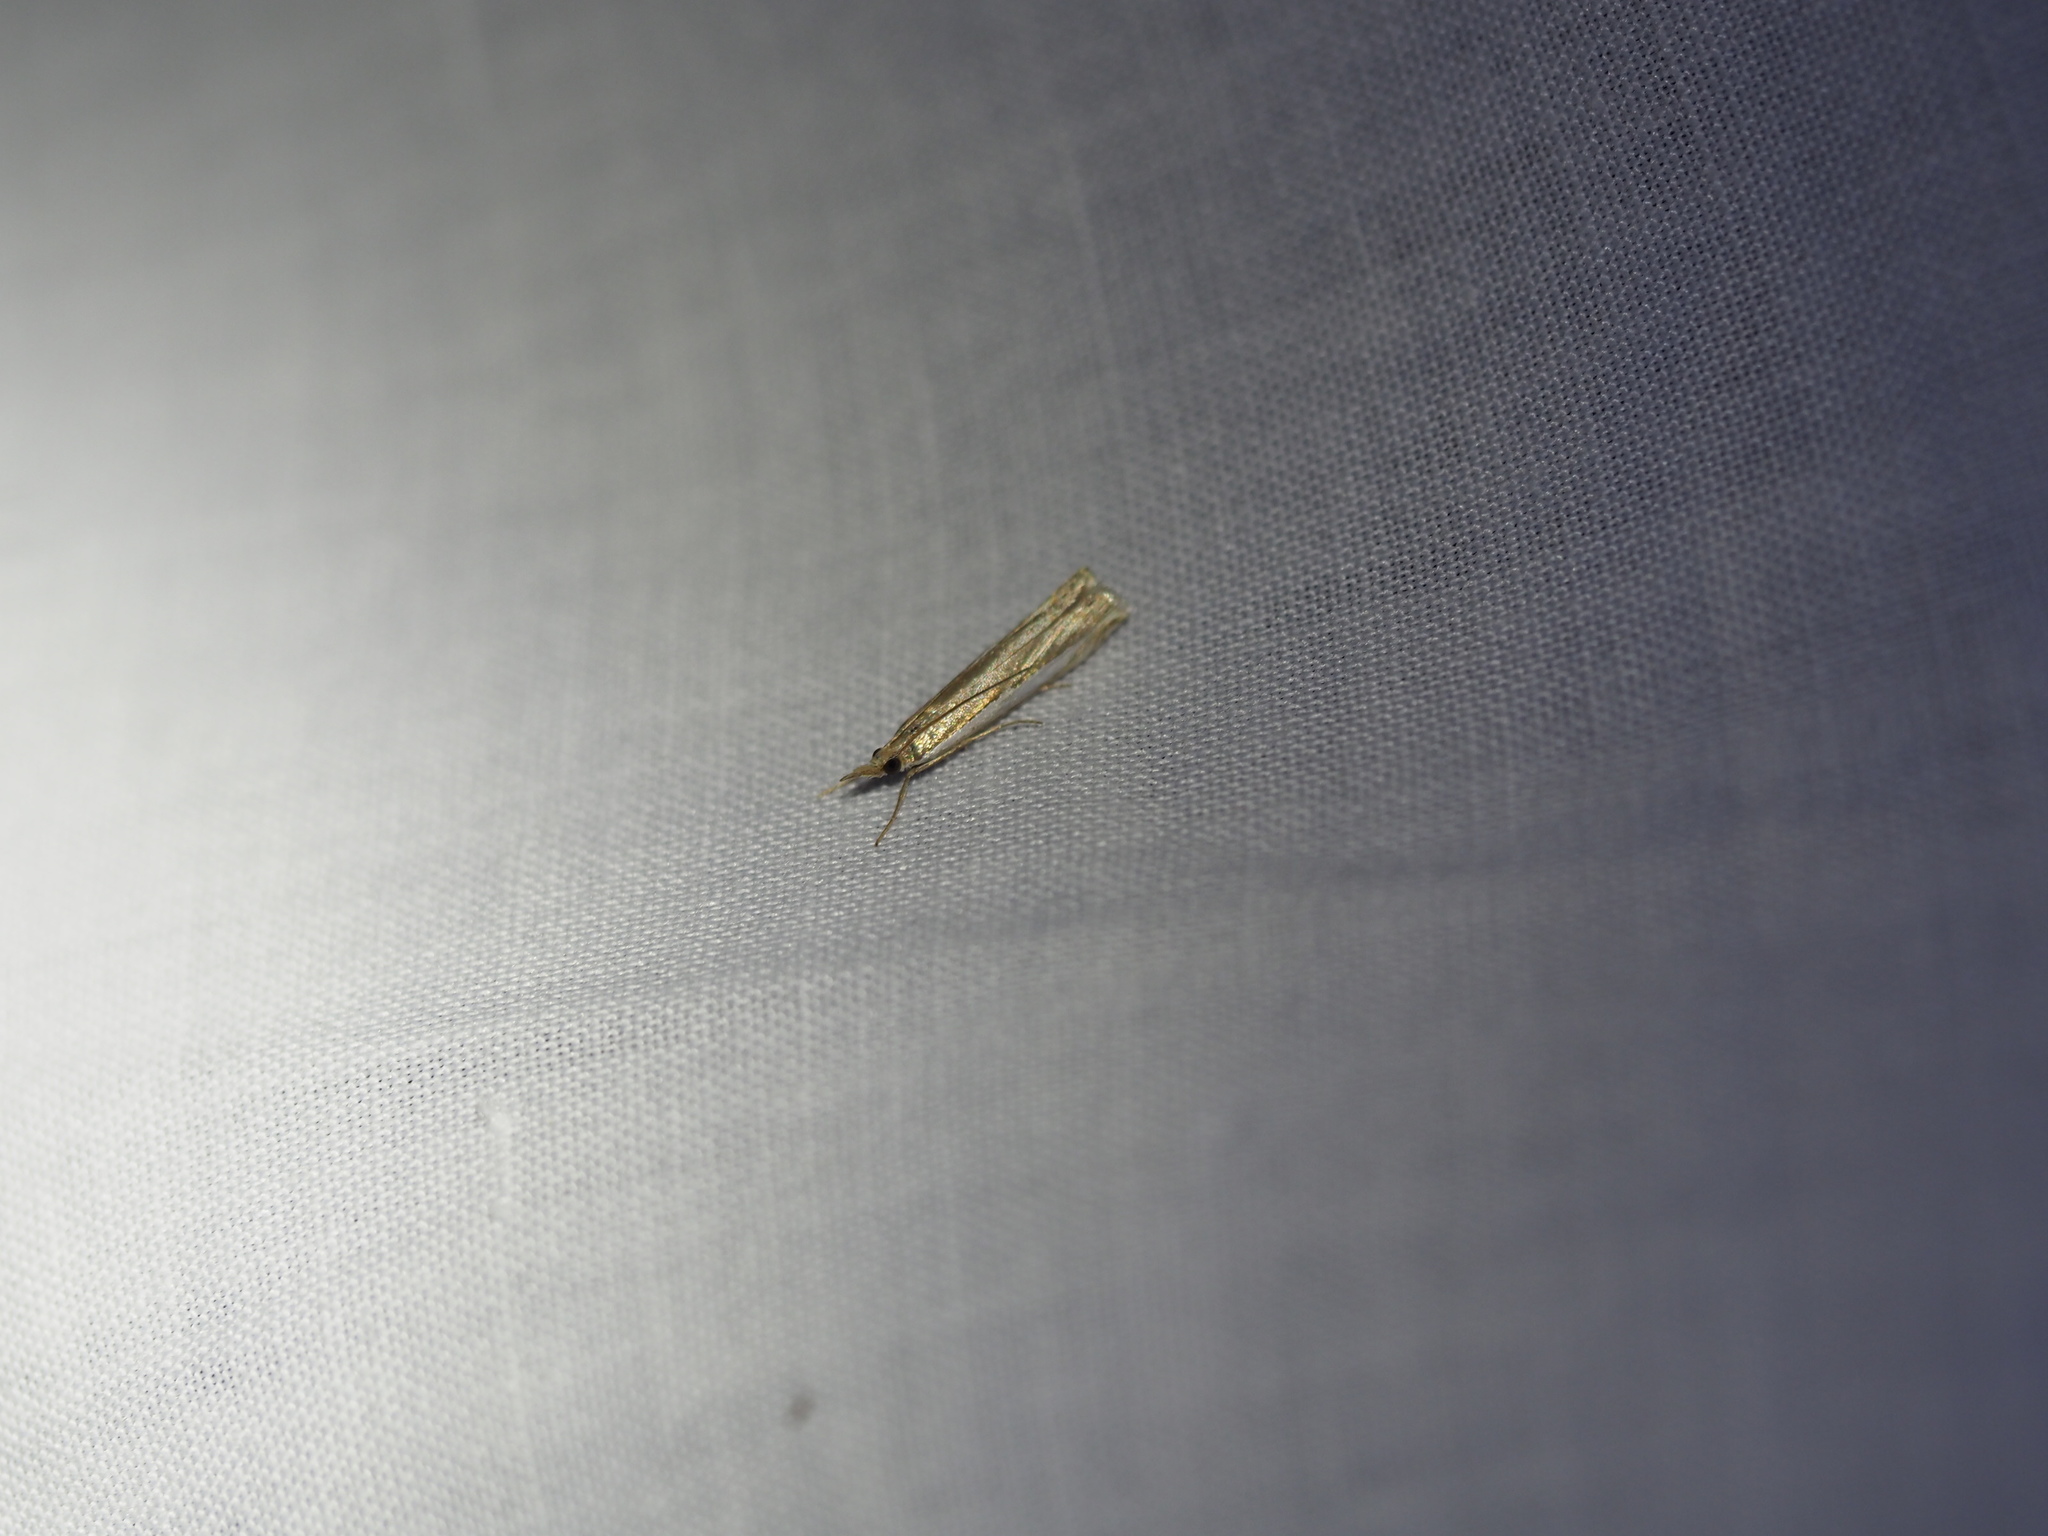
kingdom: Animalia
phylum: Arthropoda
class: Insecta
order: Lepidoptera
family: Crambidae
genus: Crambus
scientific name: Crambus
